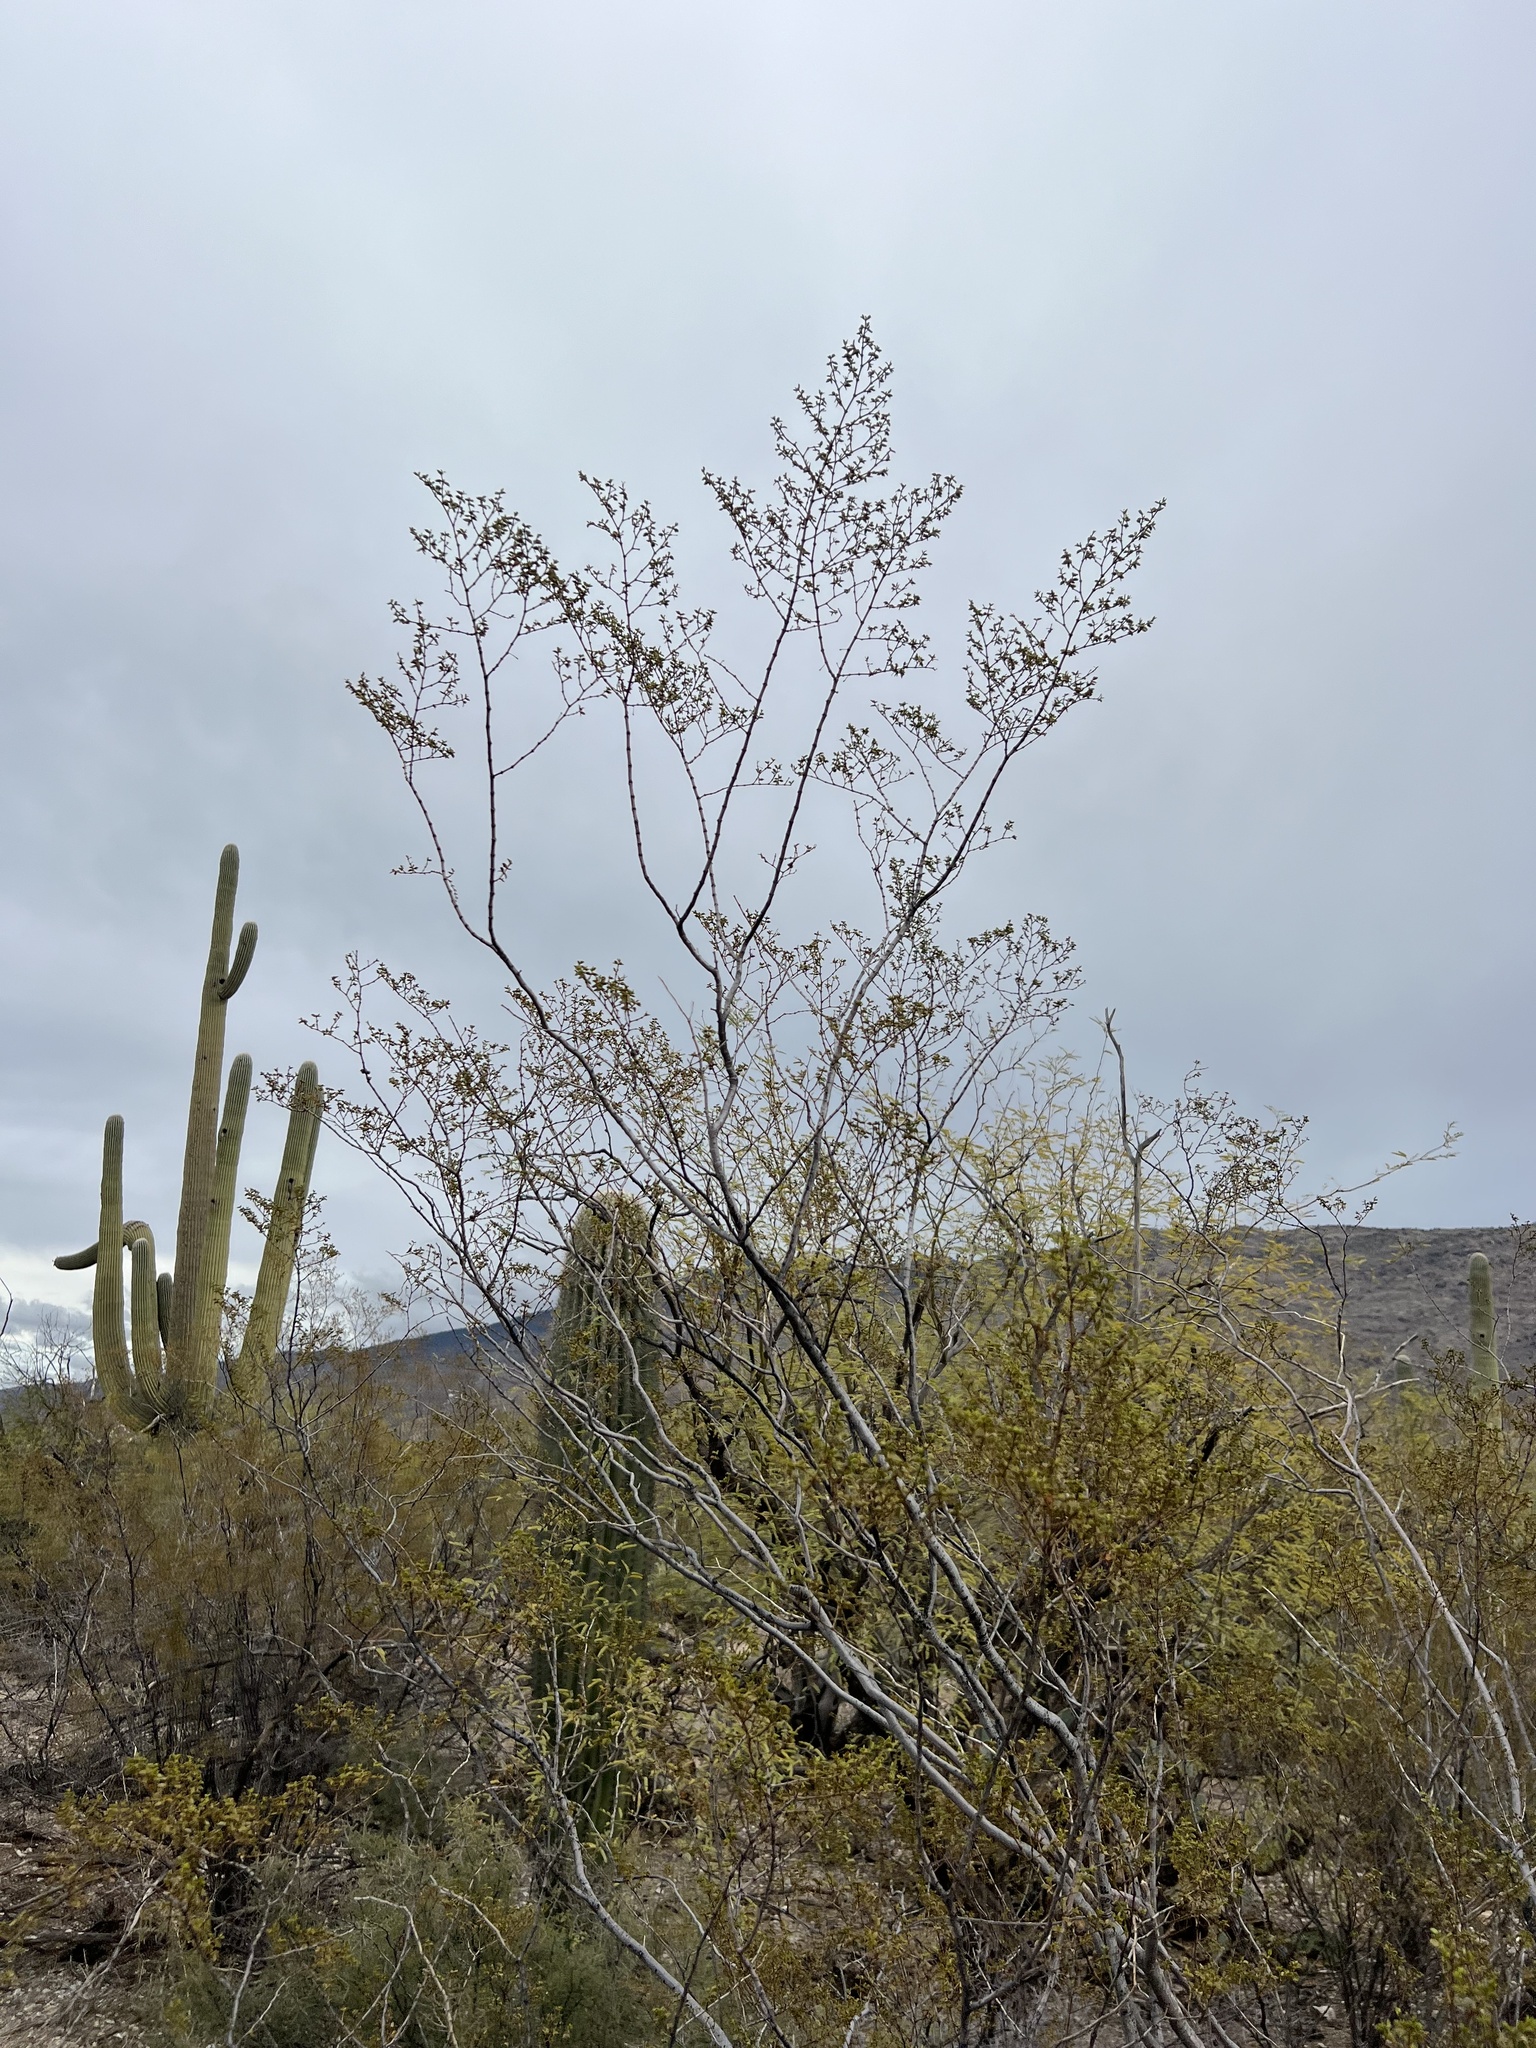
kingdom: Plantae
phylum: Tracheophyta
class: Magnoliopsida
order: Zygophyllales
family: Zygophyllaceae
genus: Larrea
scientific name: Larrea tridentata
